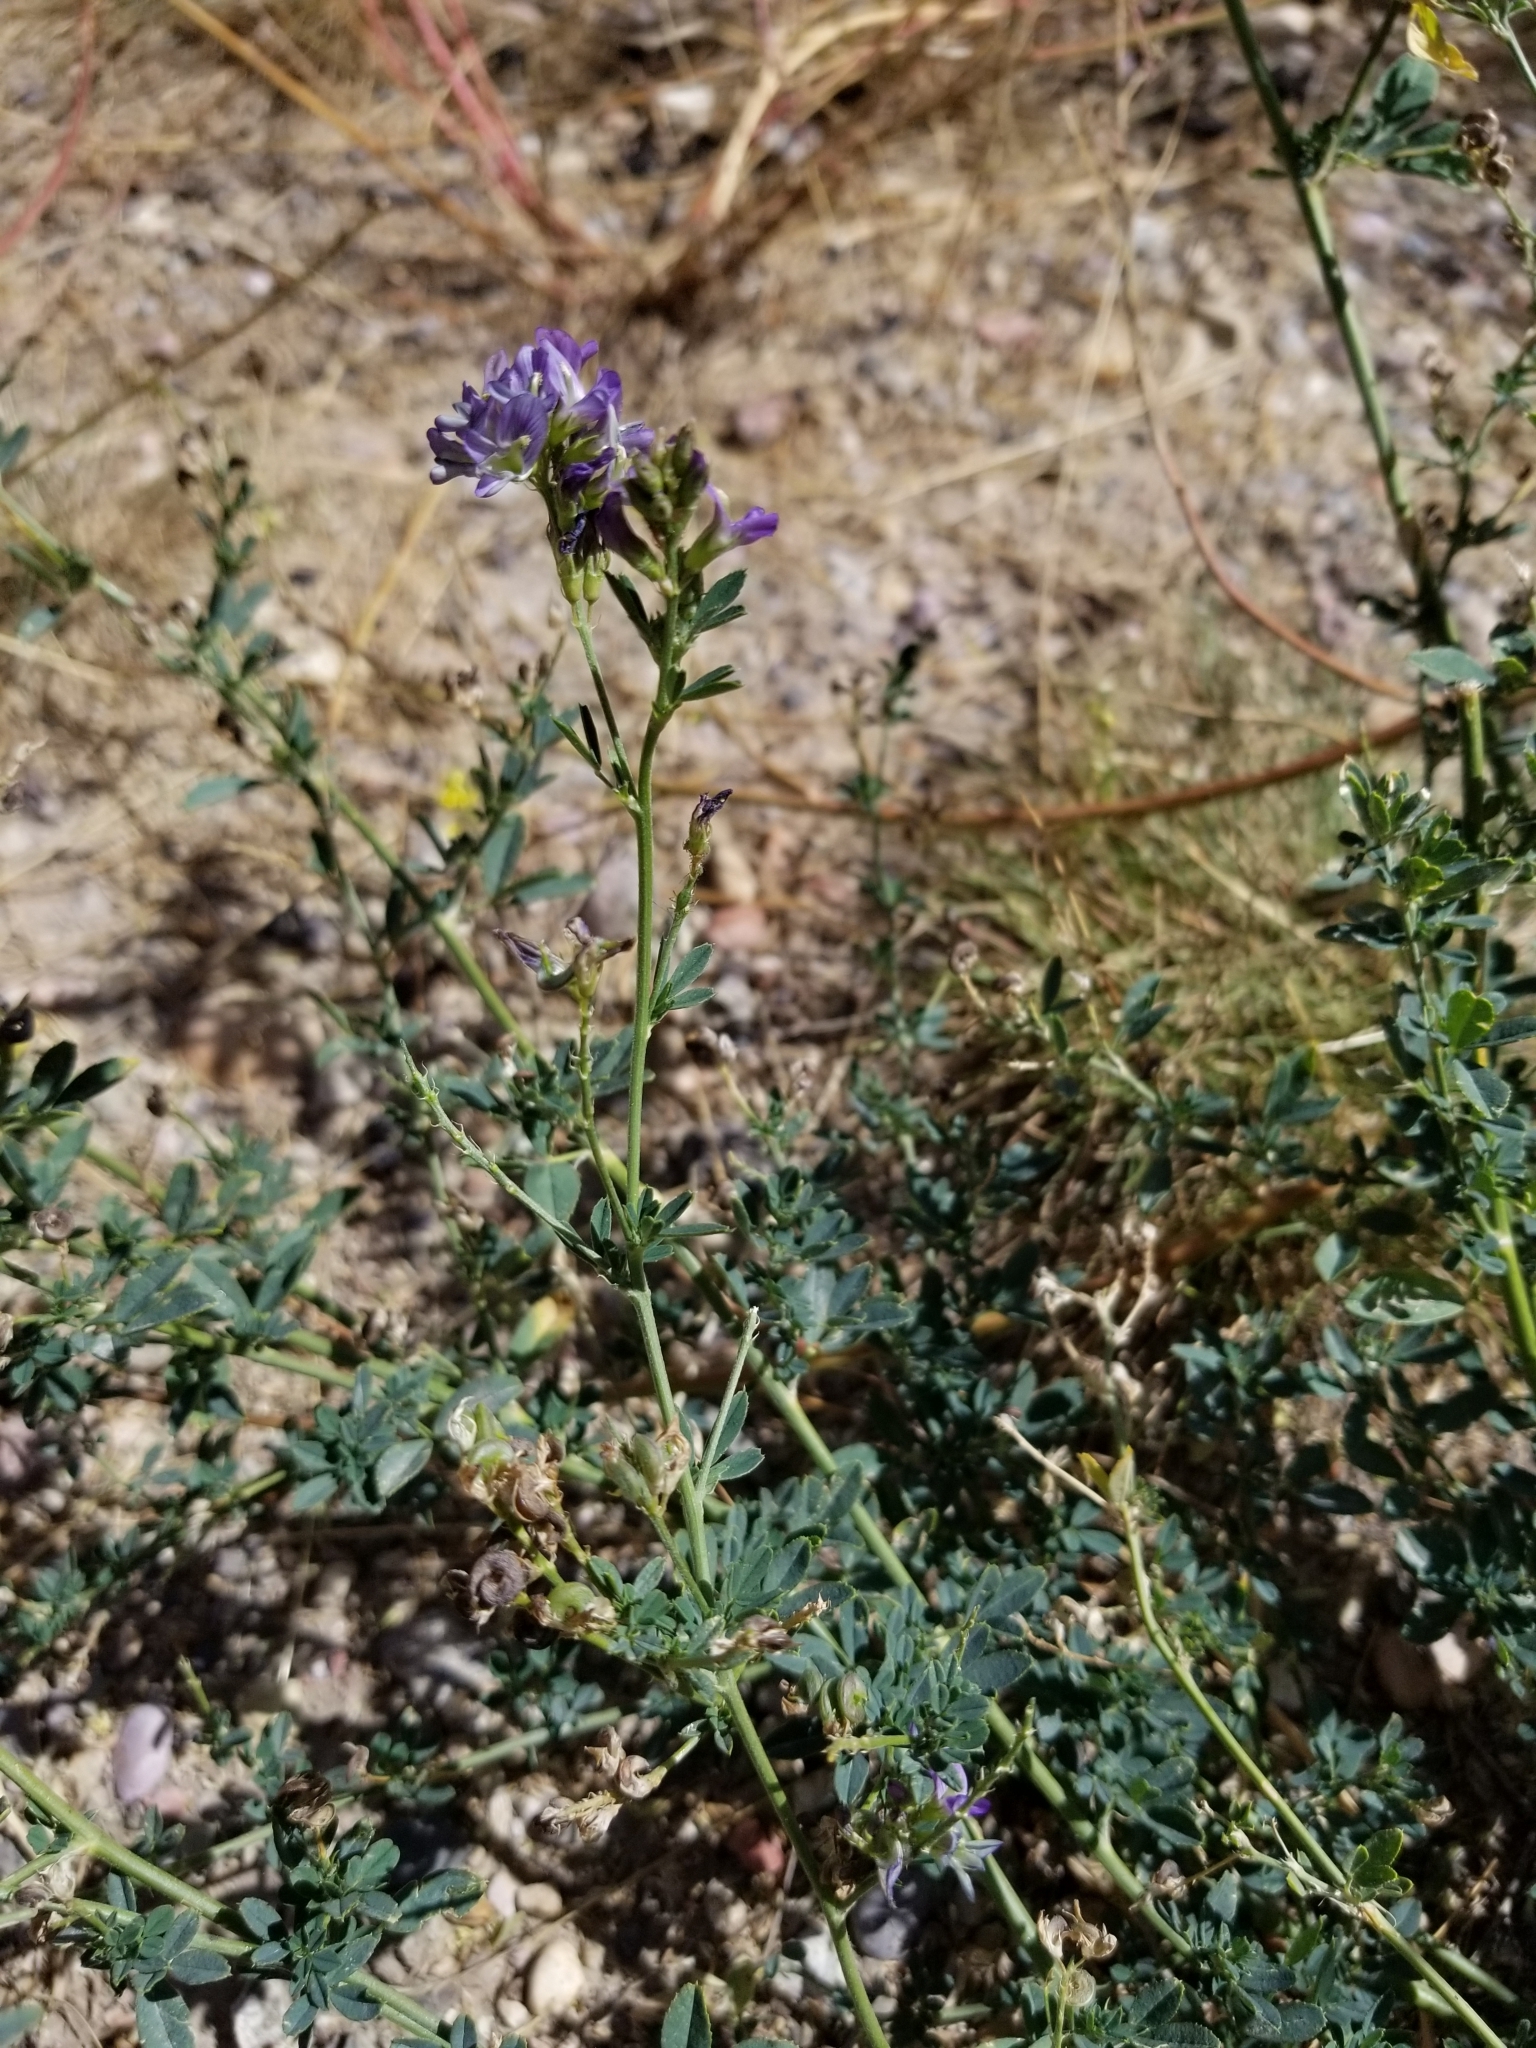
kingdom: Plantae
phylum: Tracheophyta
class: Magnoliopsida
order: Fabales
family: Fabaceae
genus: Medicago
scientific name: Medicago sativa
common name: Alfalfa
